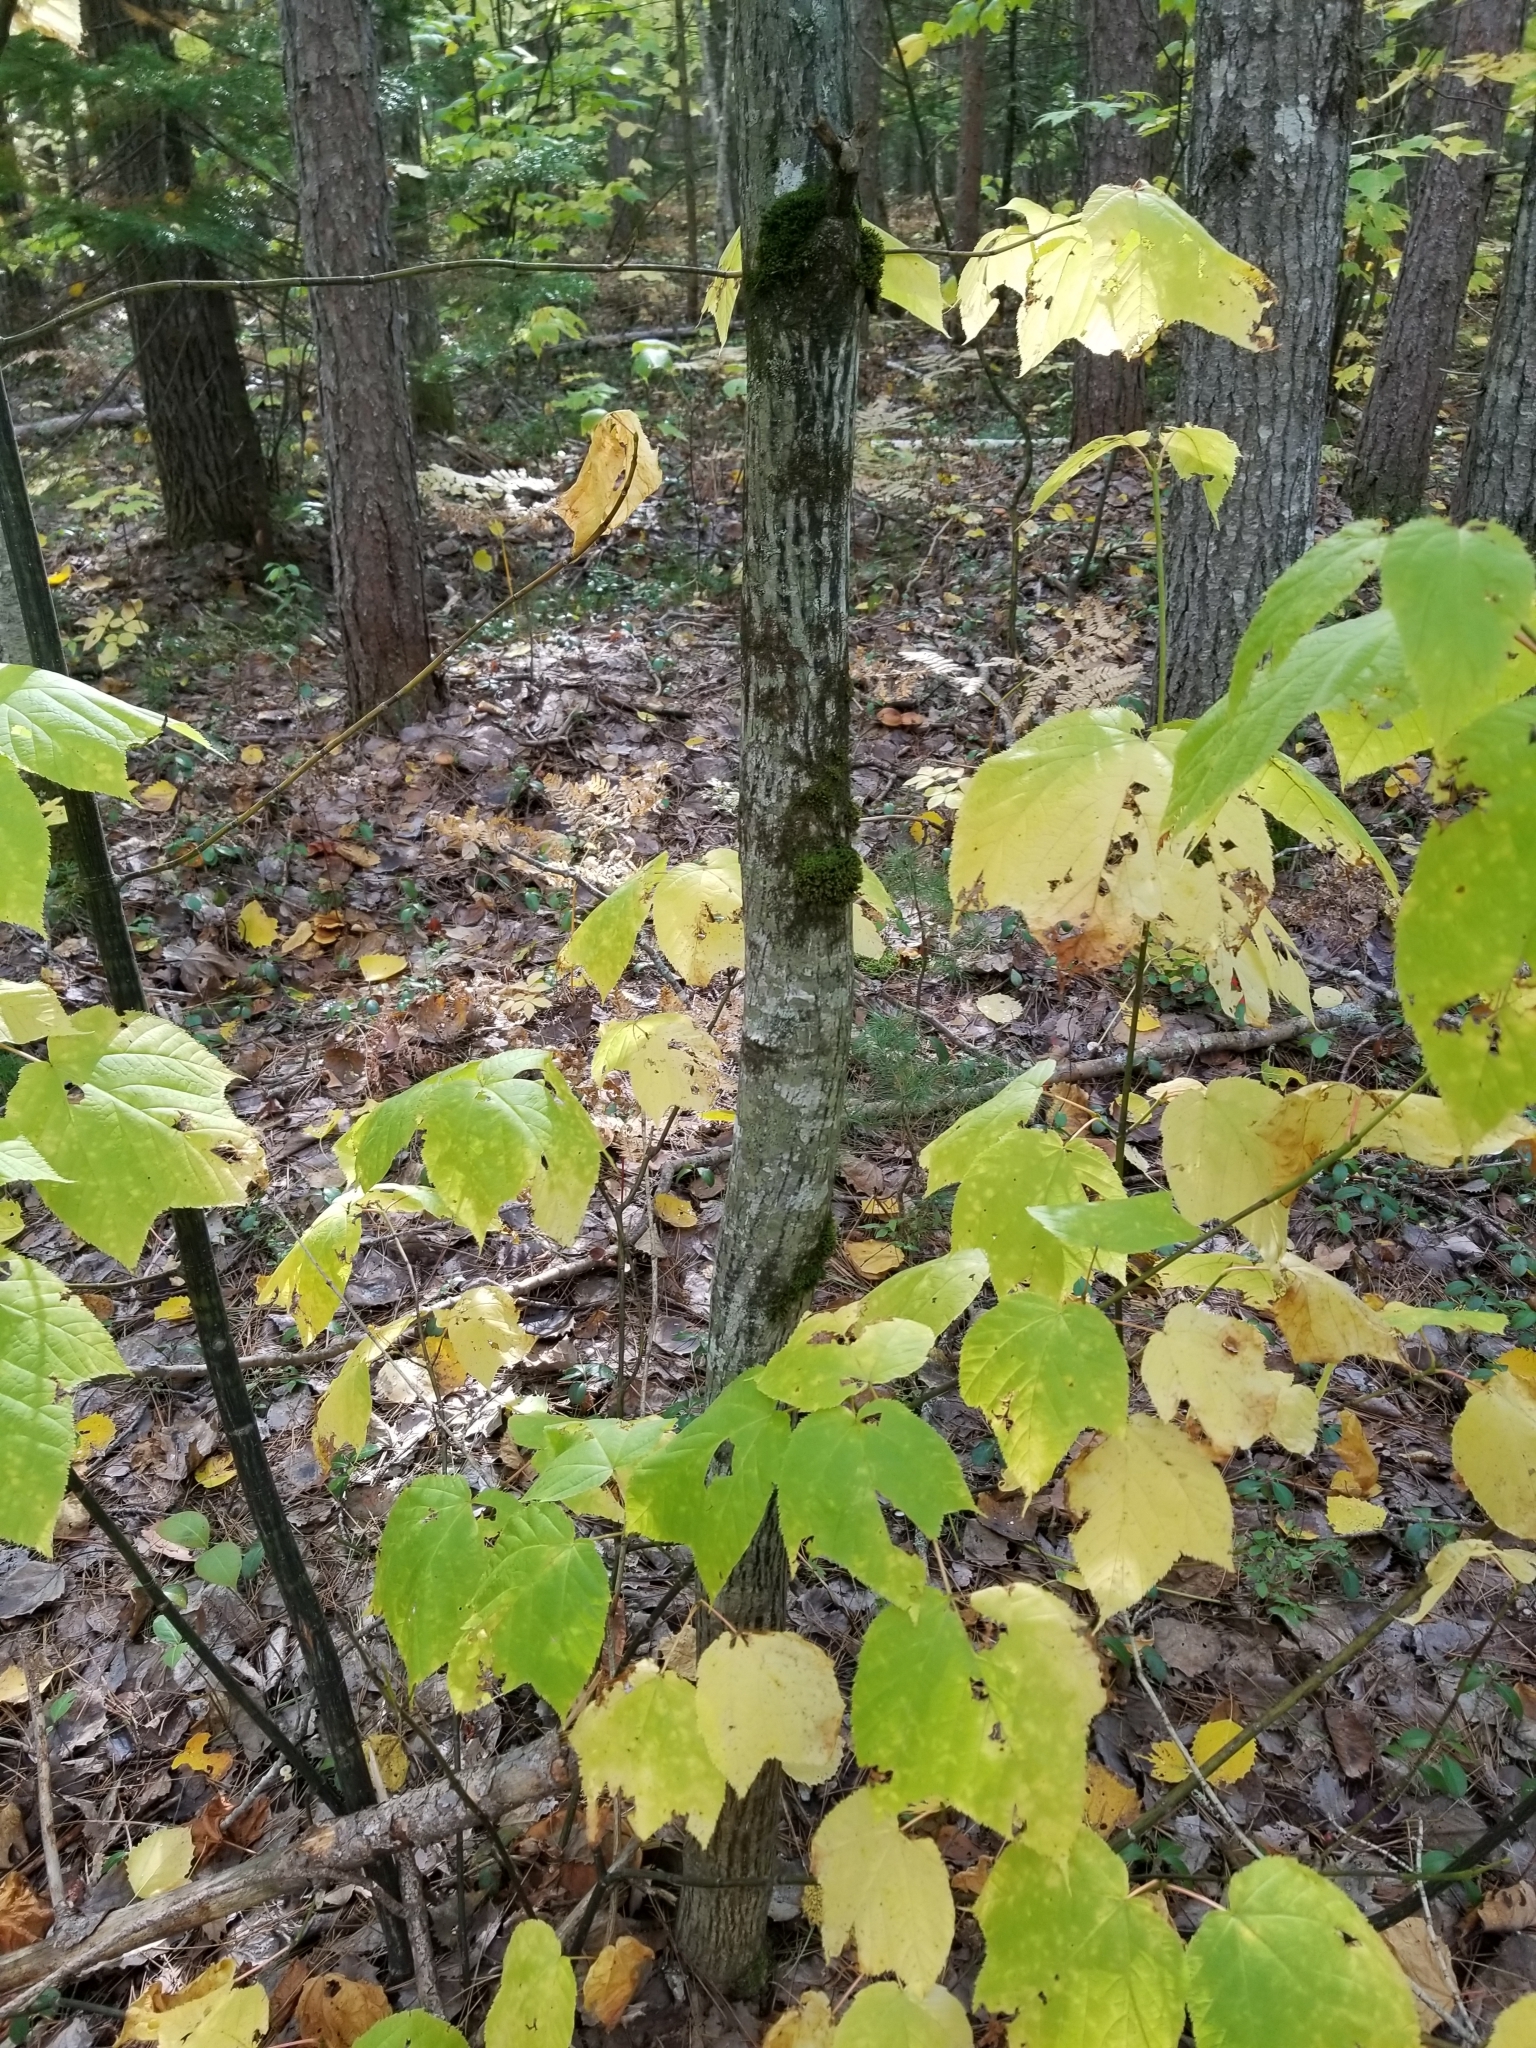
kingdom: Plantae
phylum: Tracheophyta
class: Magnoliopsida
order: Sapindales
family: Sapindaceae
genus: Acer
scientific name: Acer pensylvanicum
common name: Moosewood
